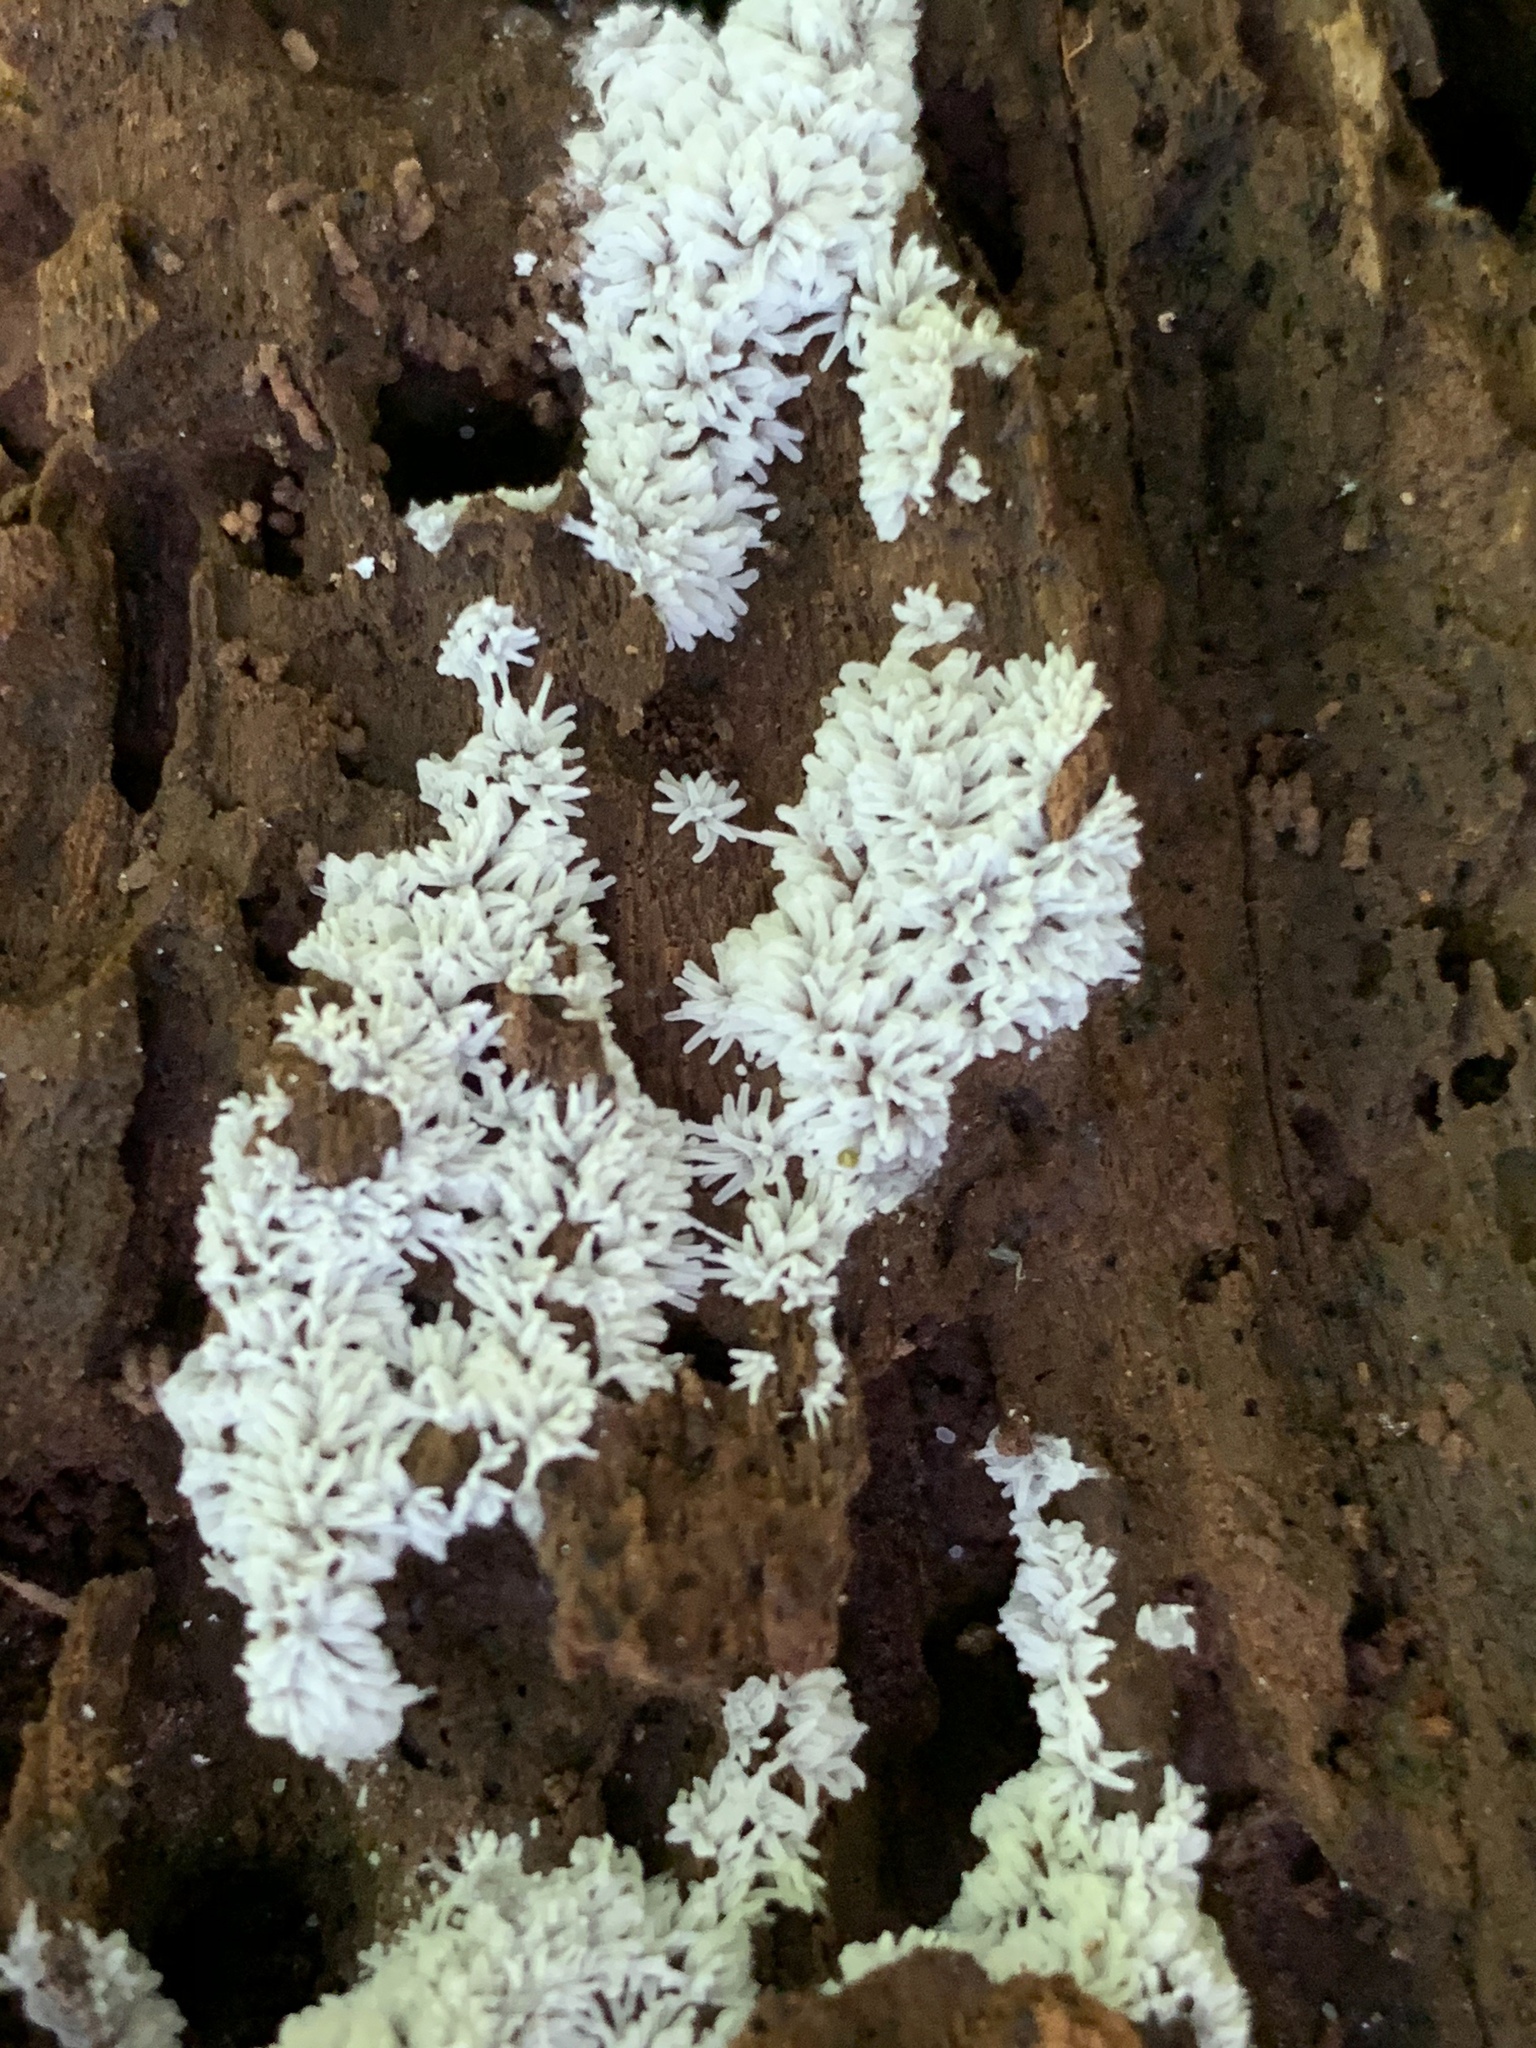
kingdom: Protozoa
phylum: Mycetozoa
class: Protosteliomycetes
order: Ceratiomyxales
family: Ceratiomyxaceae
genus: Ceratiomyxa
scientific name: Ceratiomyxa fruticulosa
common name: Honeycomb coral slime mold
